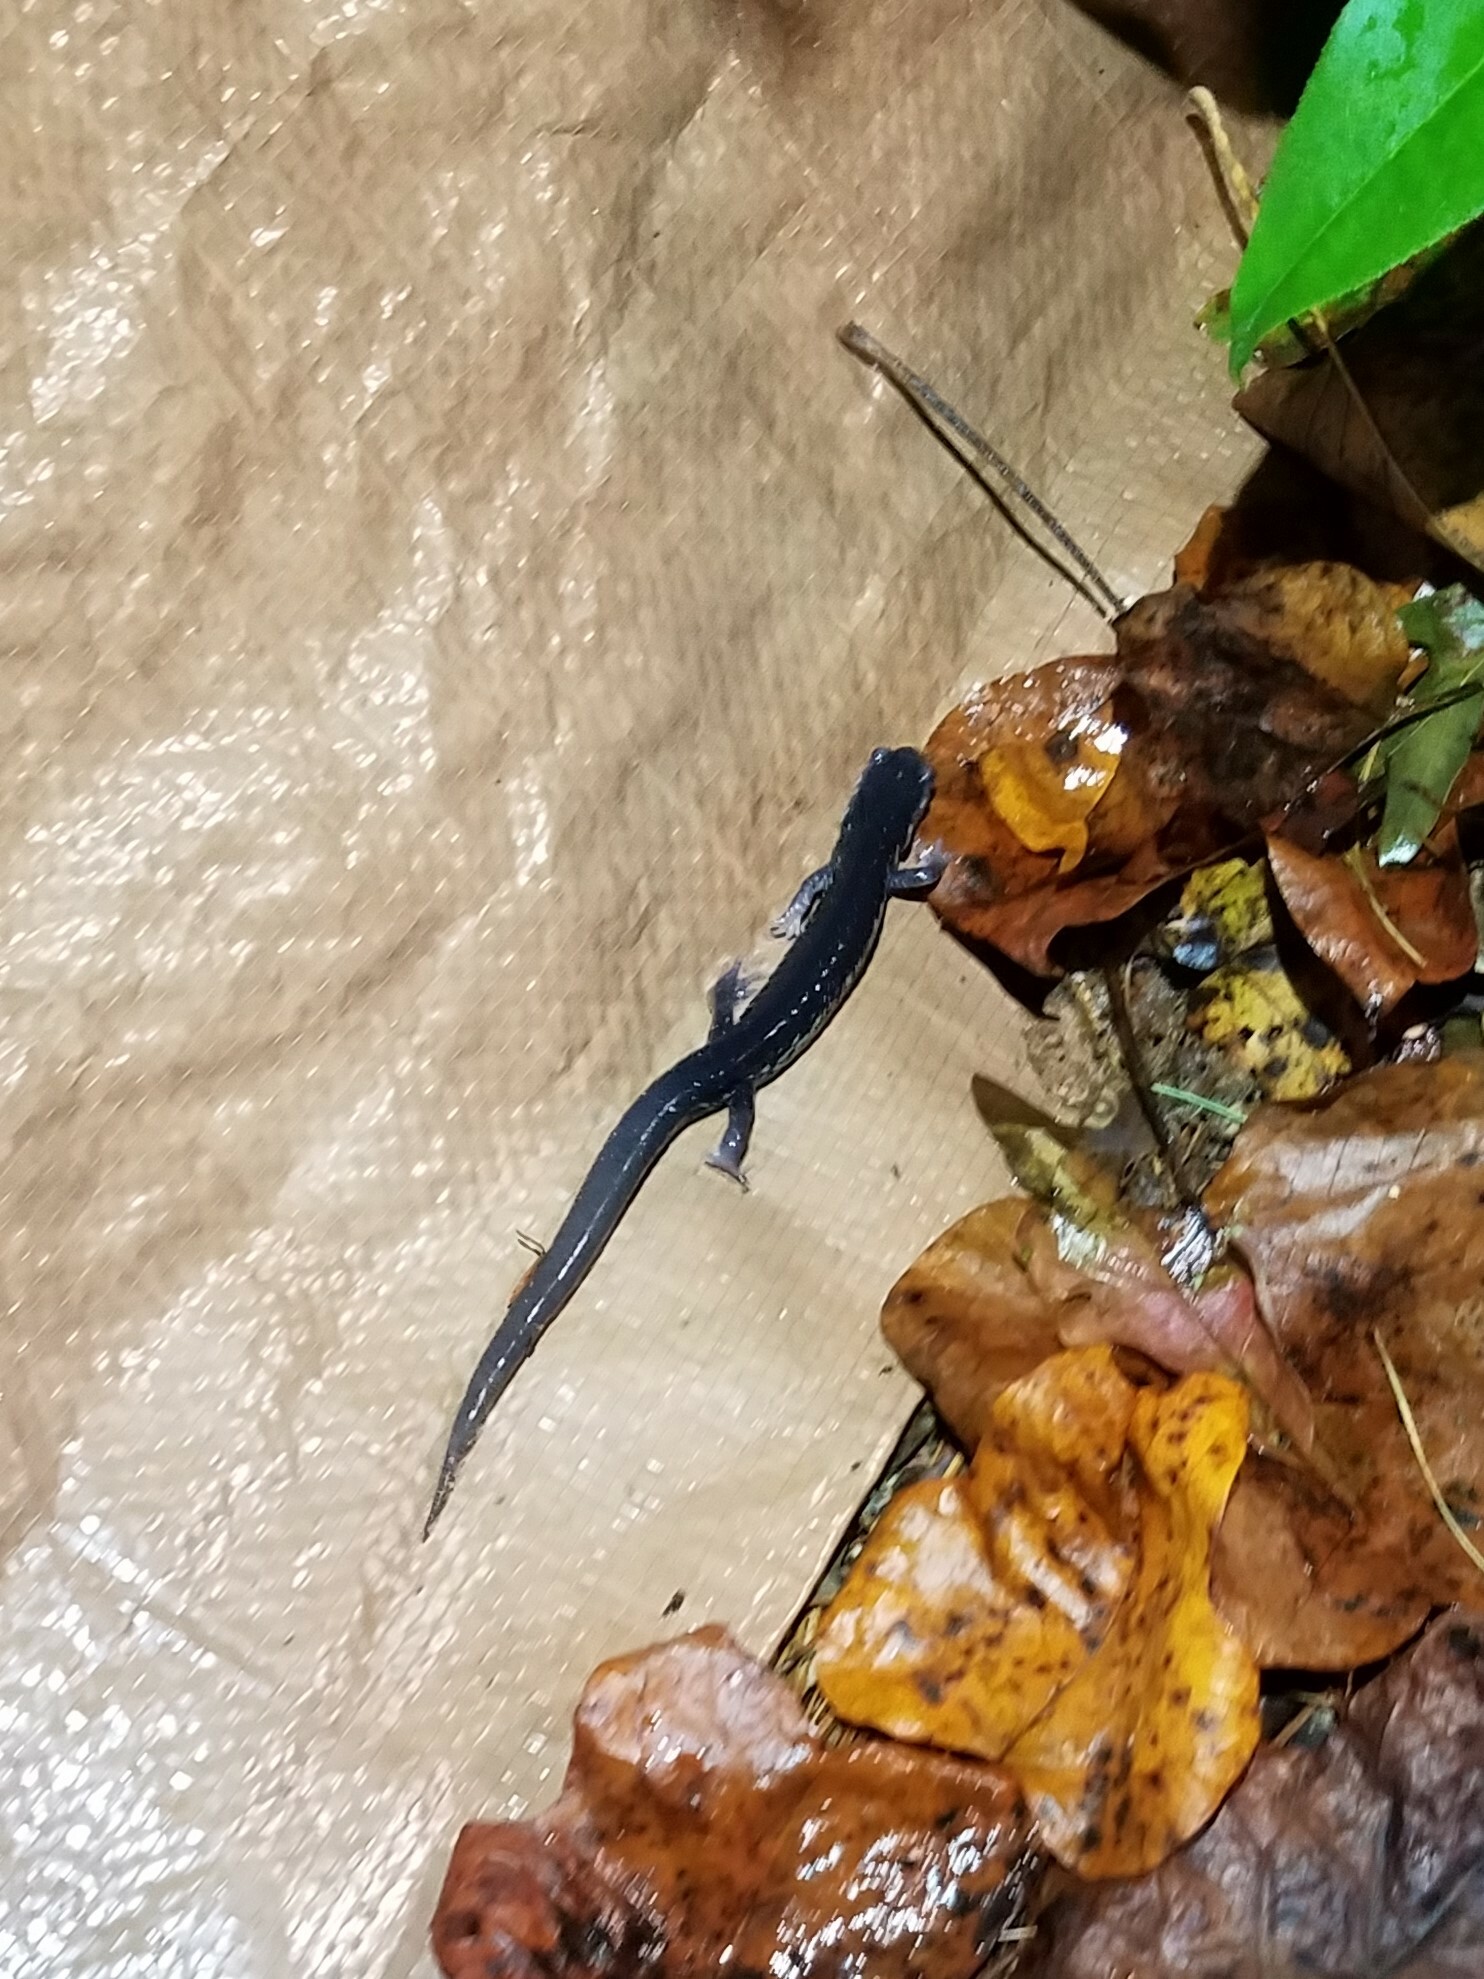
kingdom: Animalia
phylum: Chordata
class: Amphibia
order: Caudata
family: Plethodontidae
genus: Plethodon
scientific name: Plethodon chattahoochee
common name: Chattahoochee slimy salamander
